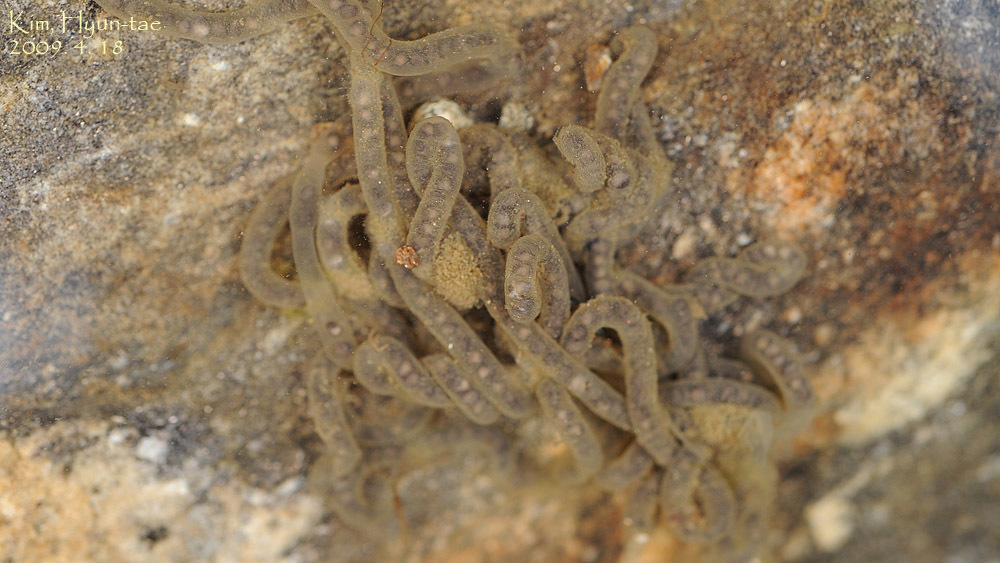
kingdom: Animalia
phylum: Chordata
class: Amphibia
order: Anura
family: Bufonidae
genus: Bufo
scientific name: Bufo stejnegeri
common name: Water toad
